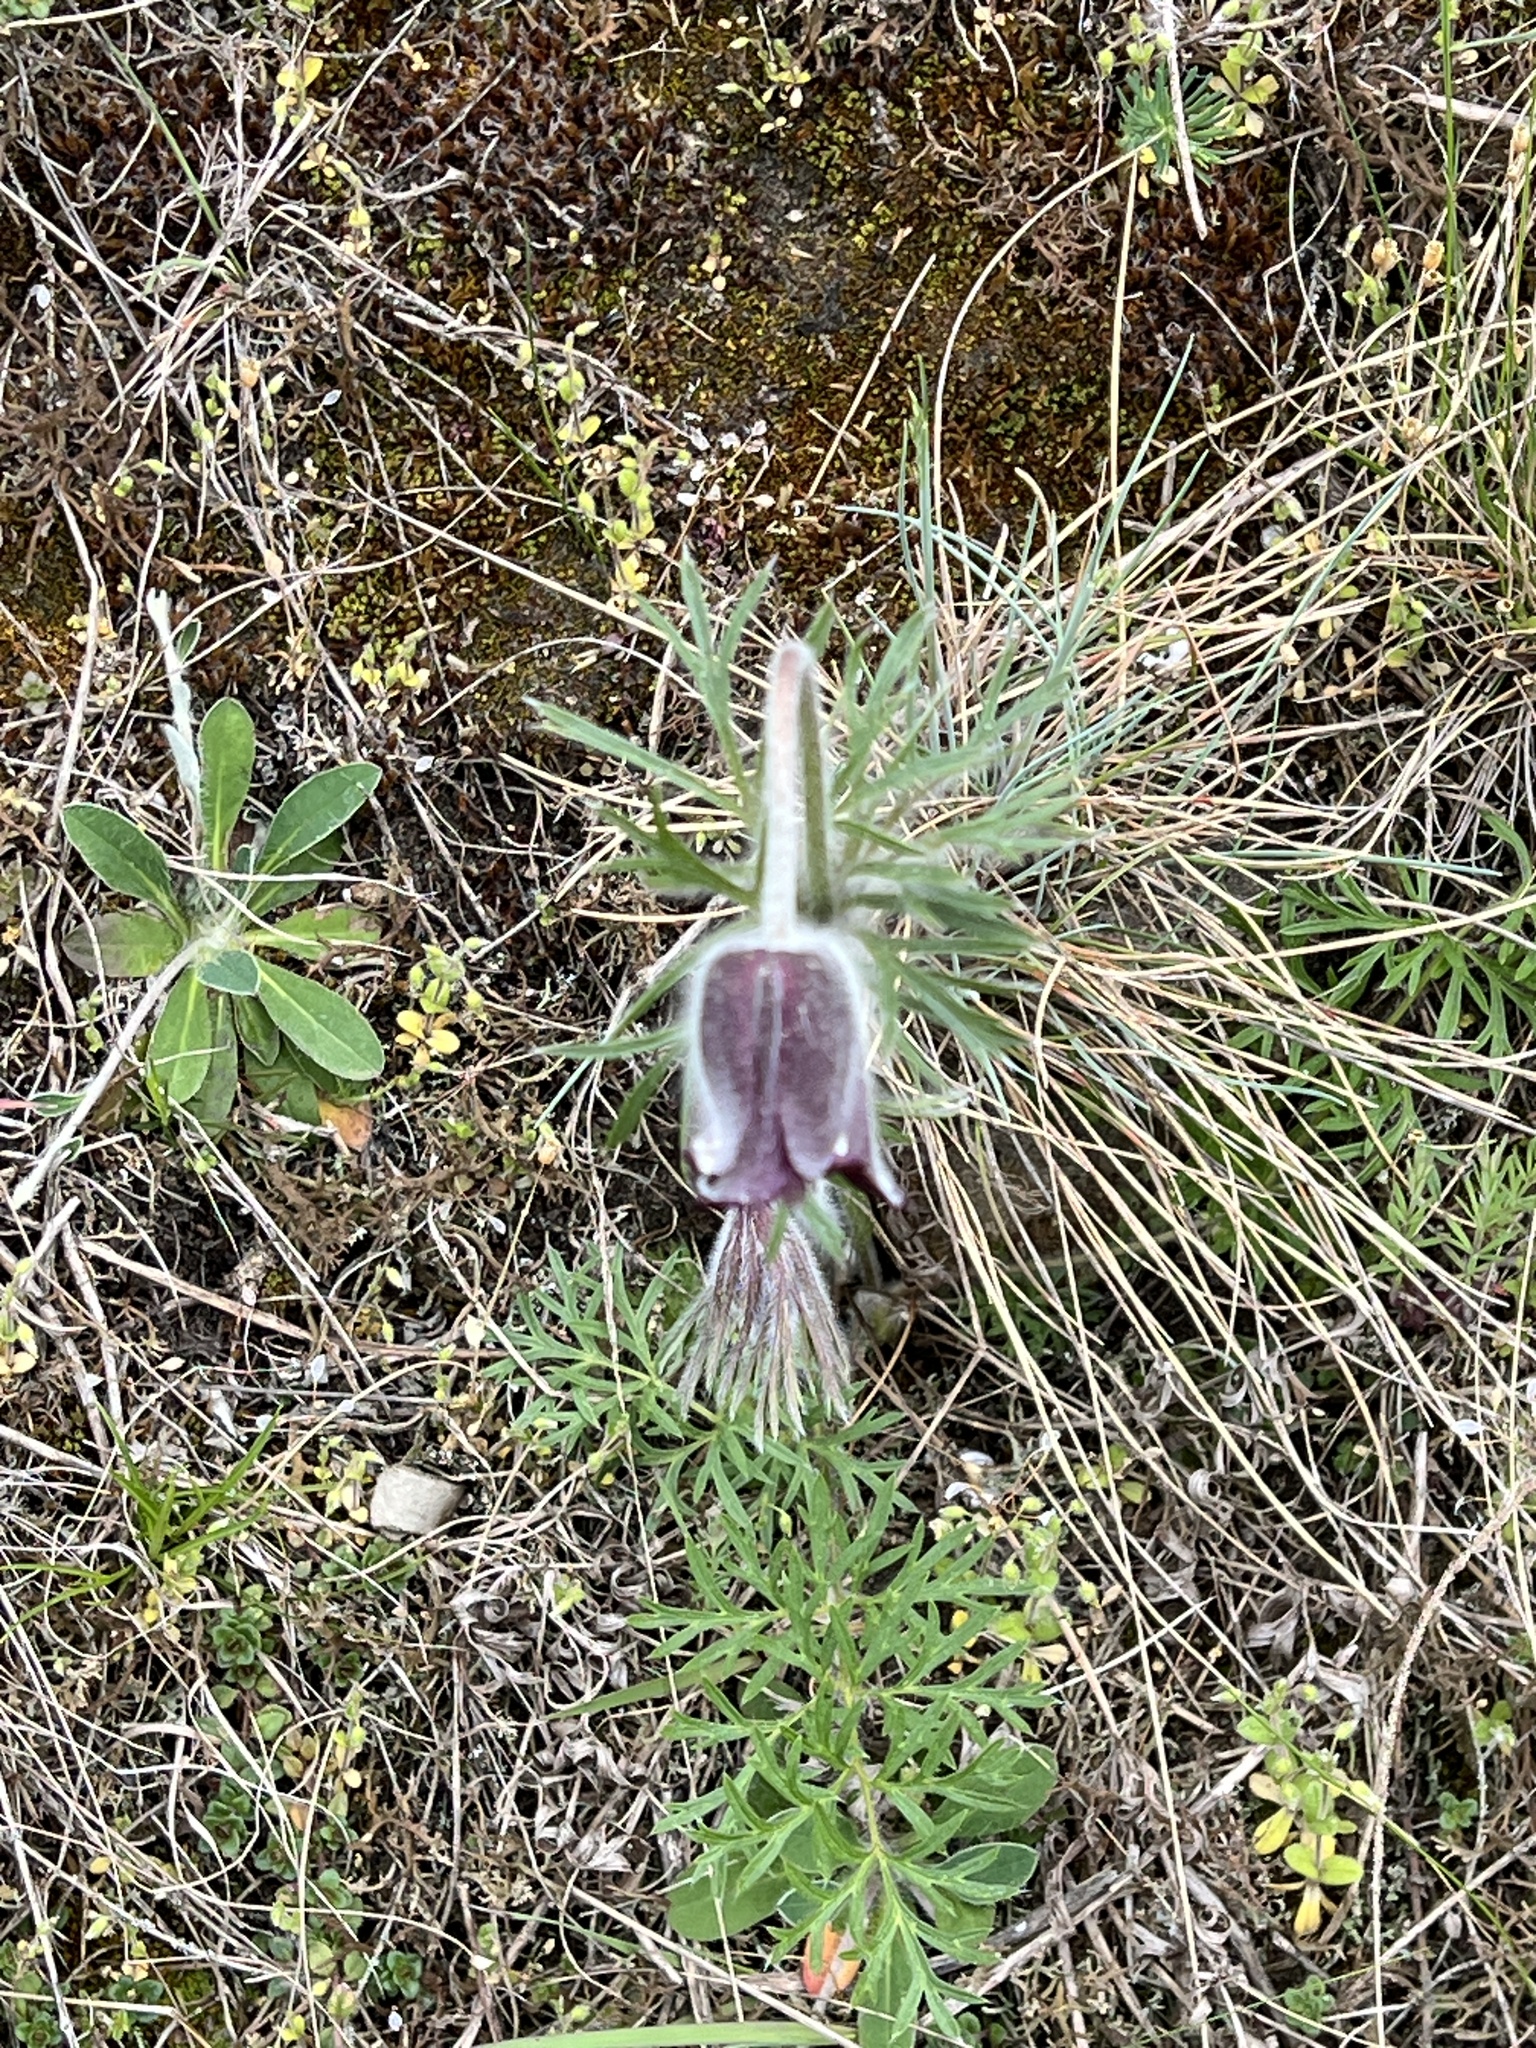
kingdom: Plantae
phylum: Tracheophyta
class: Magnoliopsida
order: Ranunculales
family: Ranunculaceae
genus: Pulsatilla
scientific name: Pulsatilla pratensis
